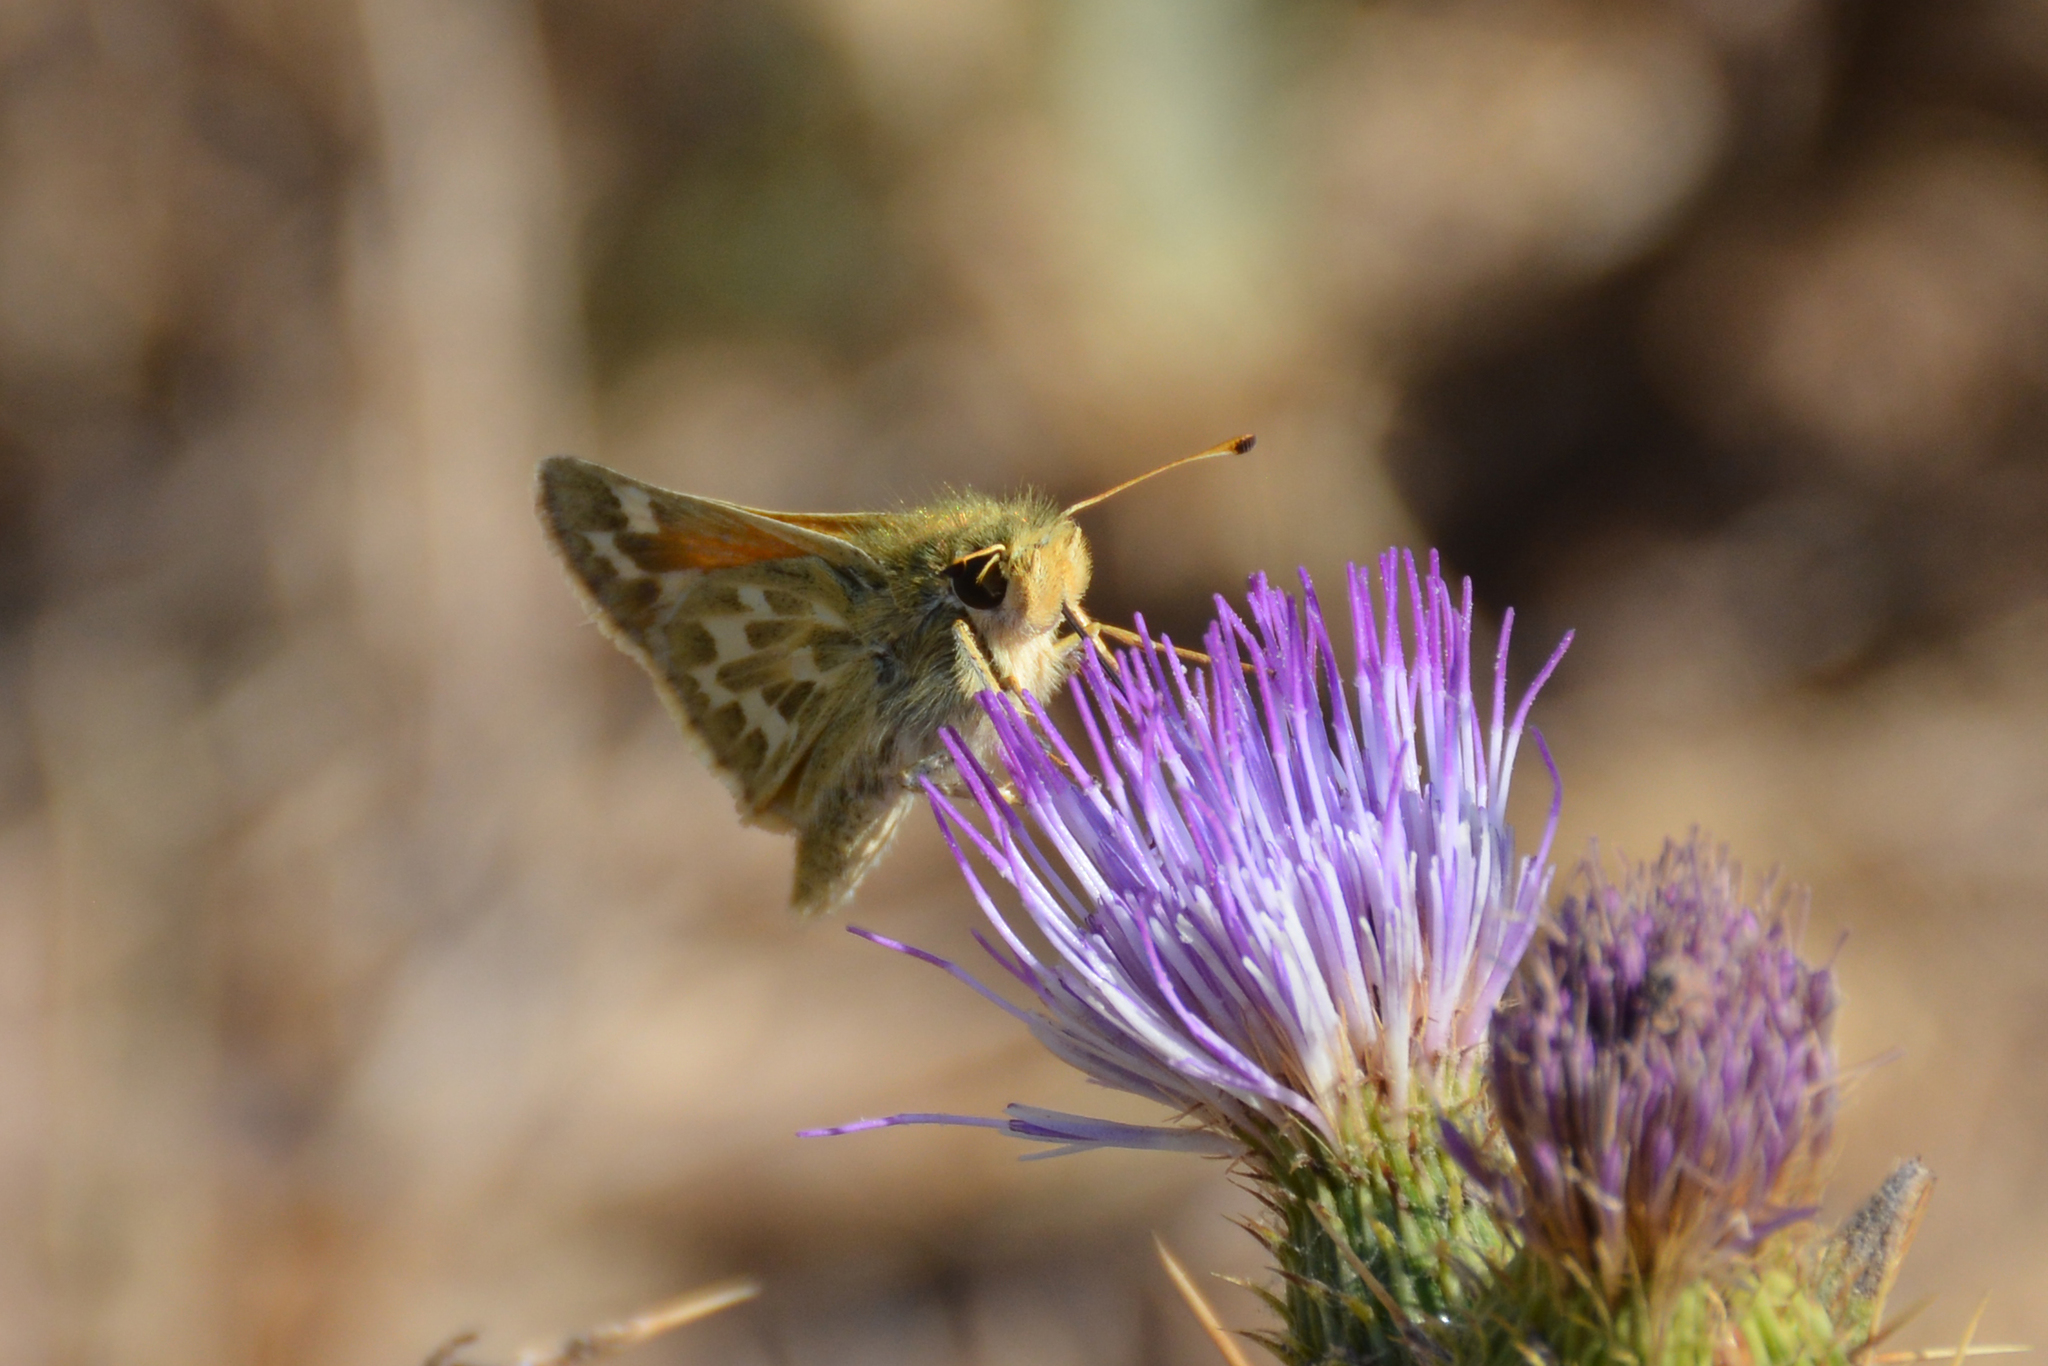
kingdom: Animalia
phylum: Arthropoda
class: Insecta
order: Lepidoptera
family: Hesperiidae
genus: Hesperia
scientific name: Hesperia comma
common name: Common branded skipper
